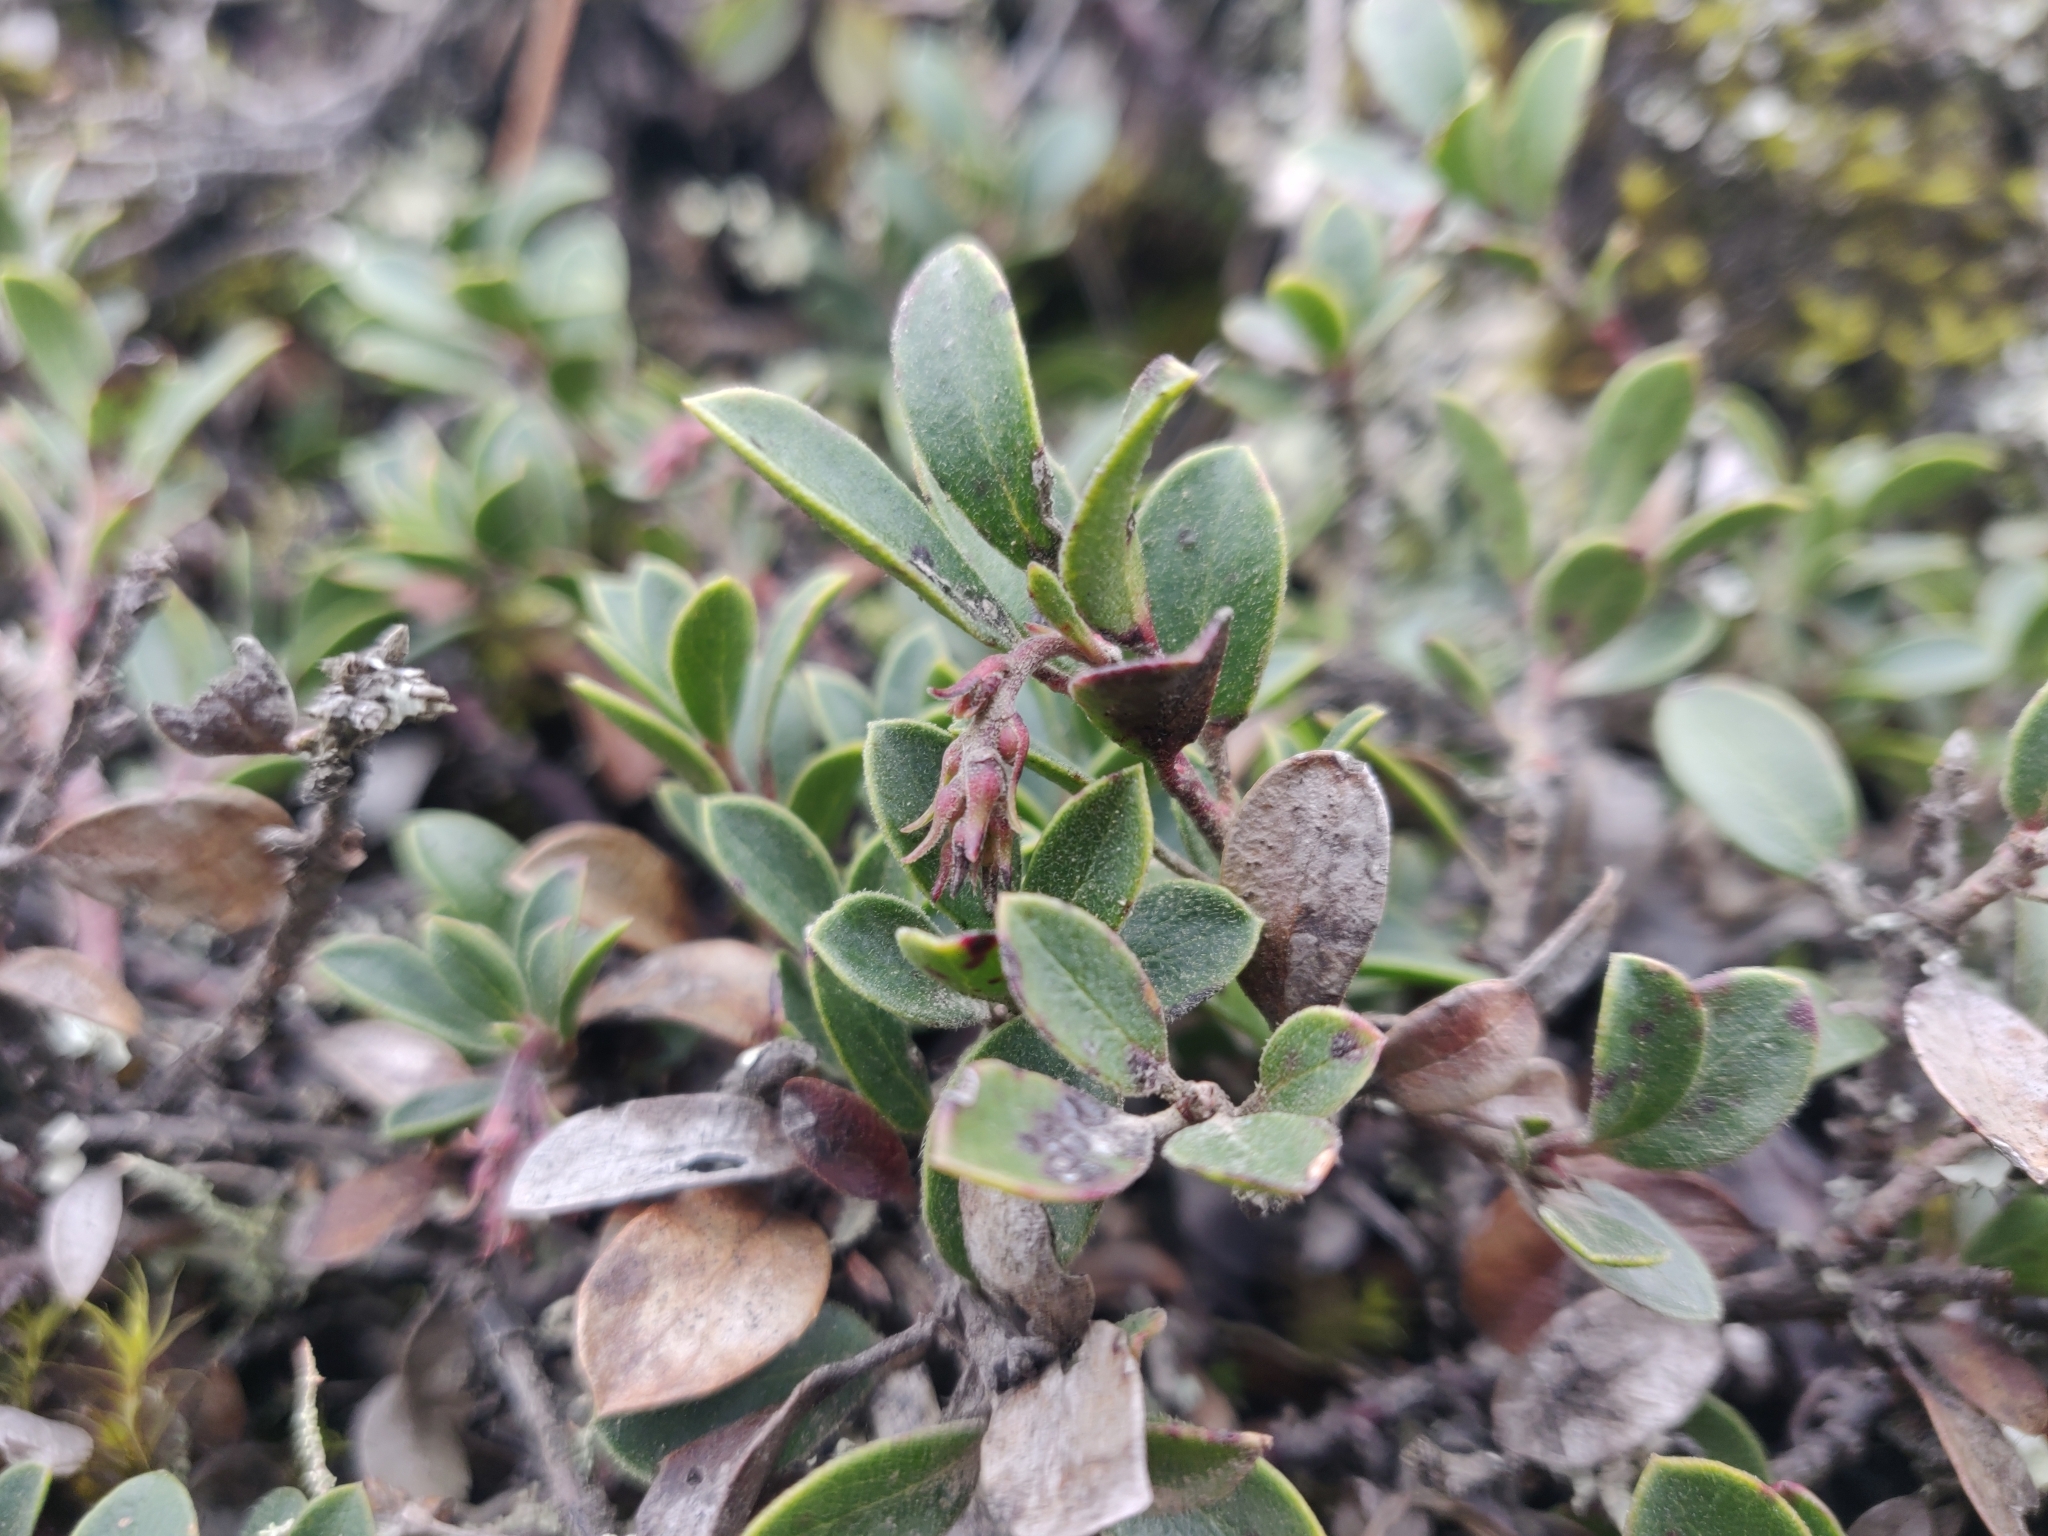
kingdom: Plantae
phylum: Tracheophyta
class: Magnoliopsida
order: Ericales
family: Ericaceae
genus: Arctostaphylos
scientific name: Arctostaphylos uva-ursi
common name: Bearberry
